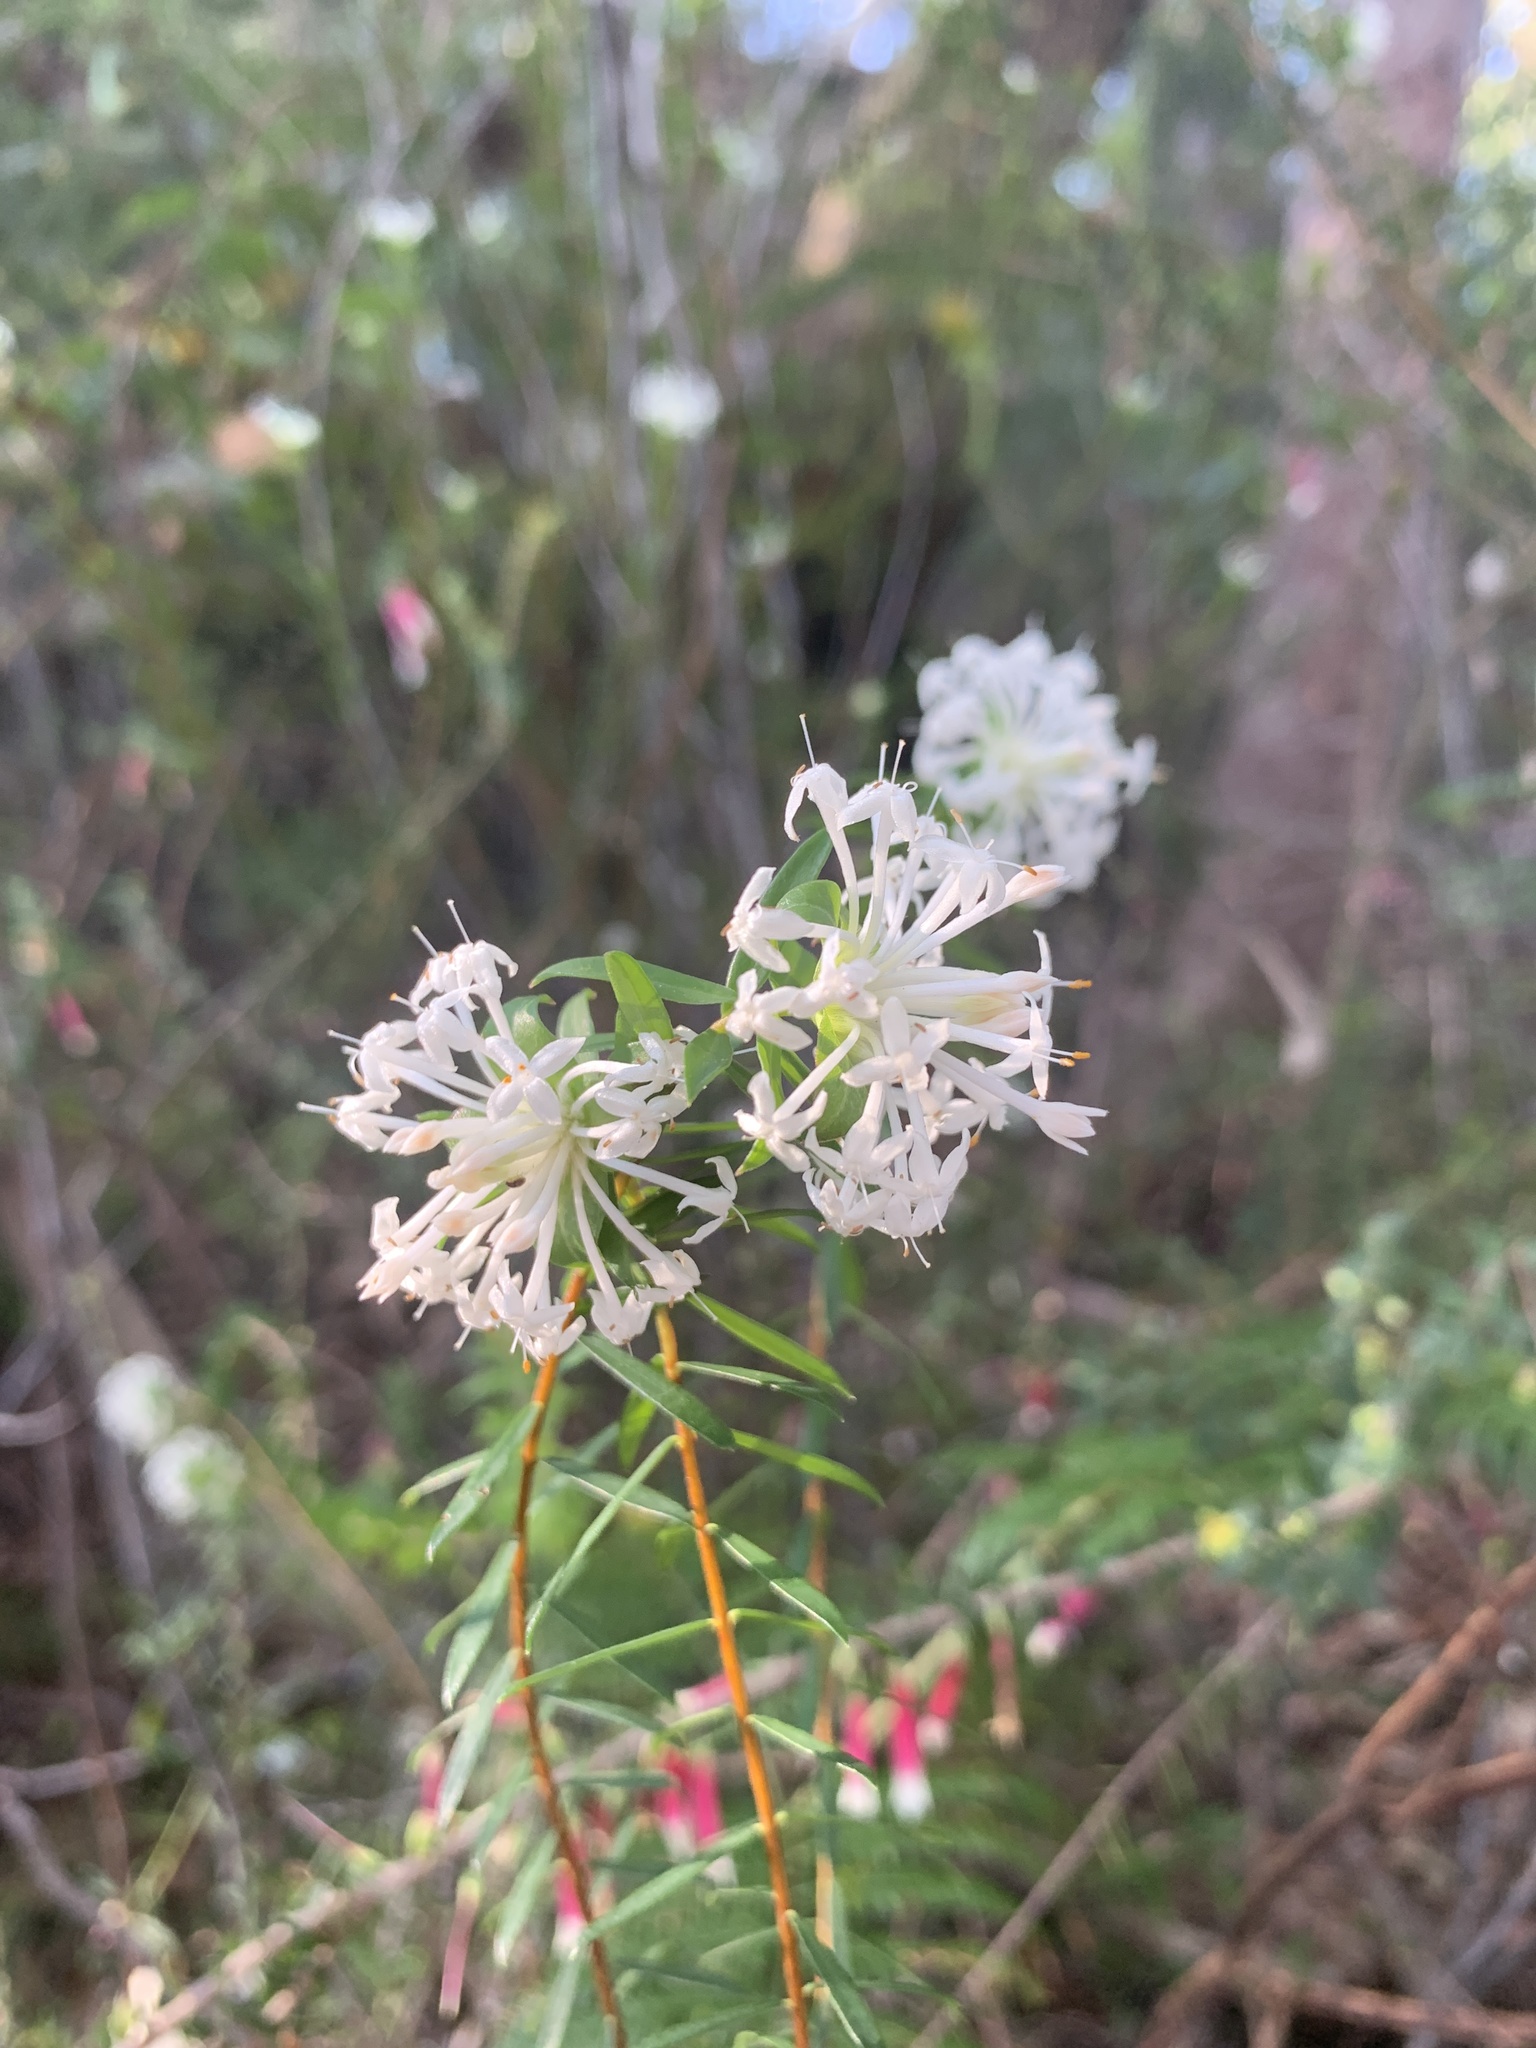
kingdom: Plantae
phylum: Tracheophyta
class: Magnoliopsida
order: Malvales
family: Thymelaeaceae
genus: Pimelea
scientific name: Pimelea linifolia
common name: Queen-of-the-bush
